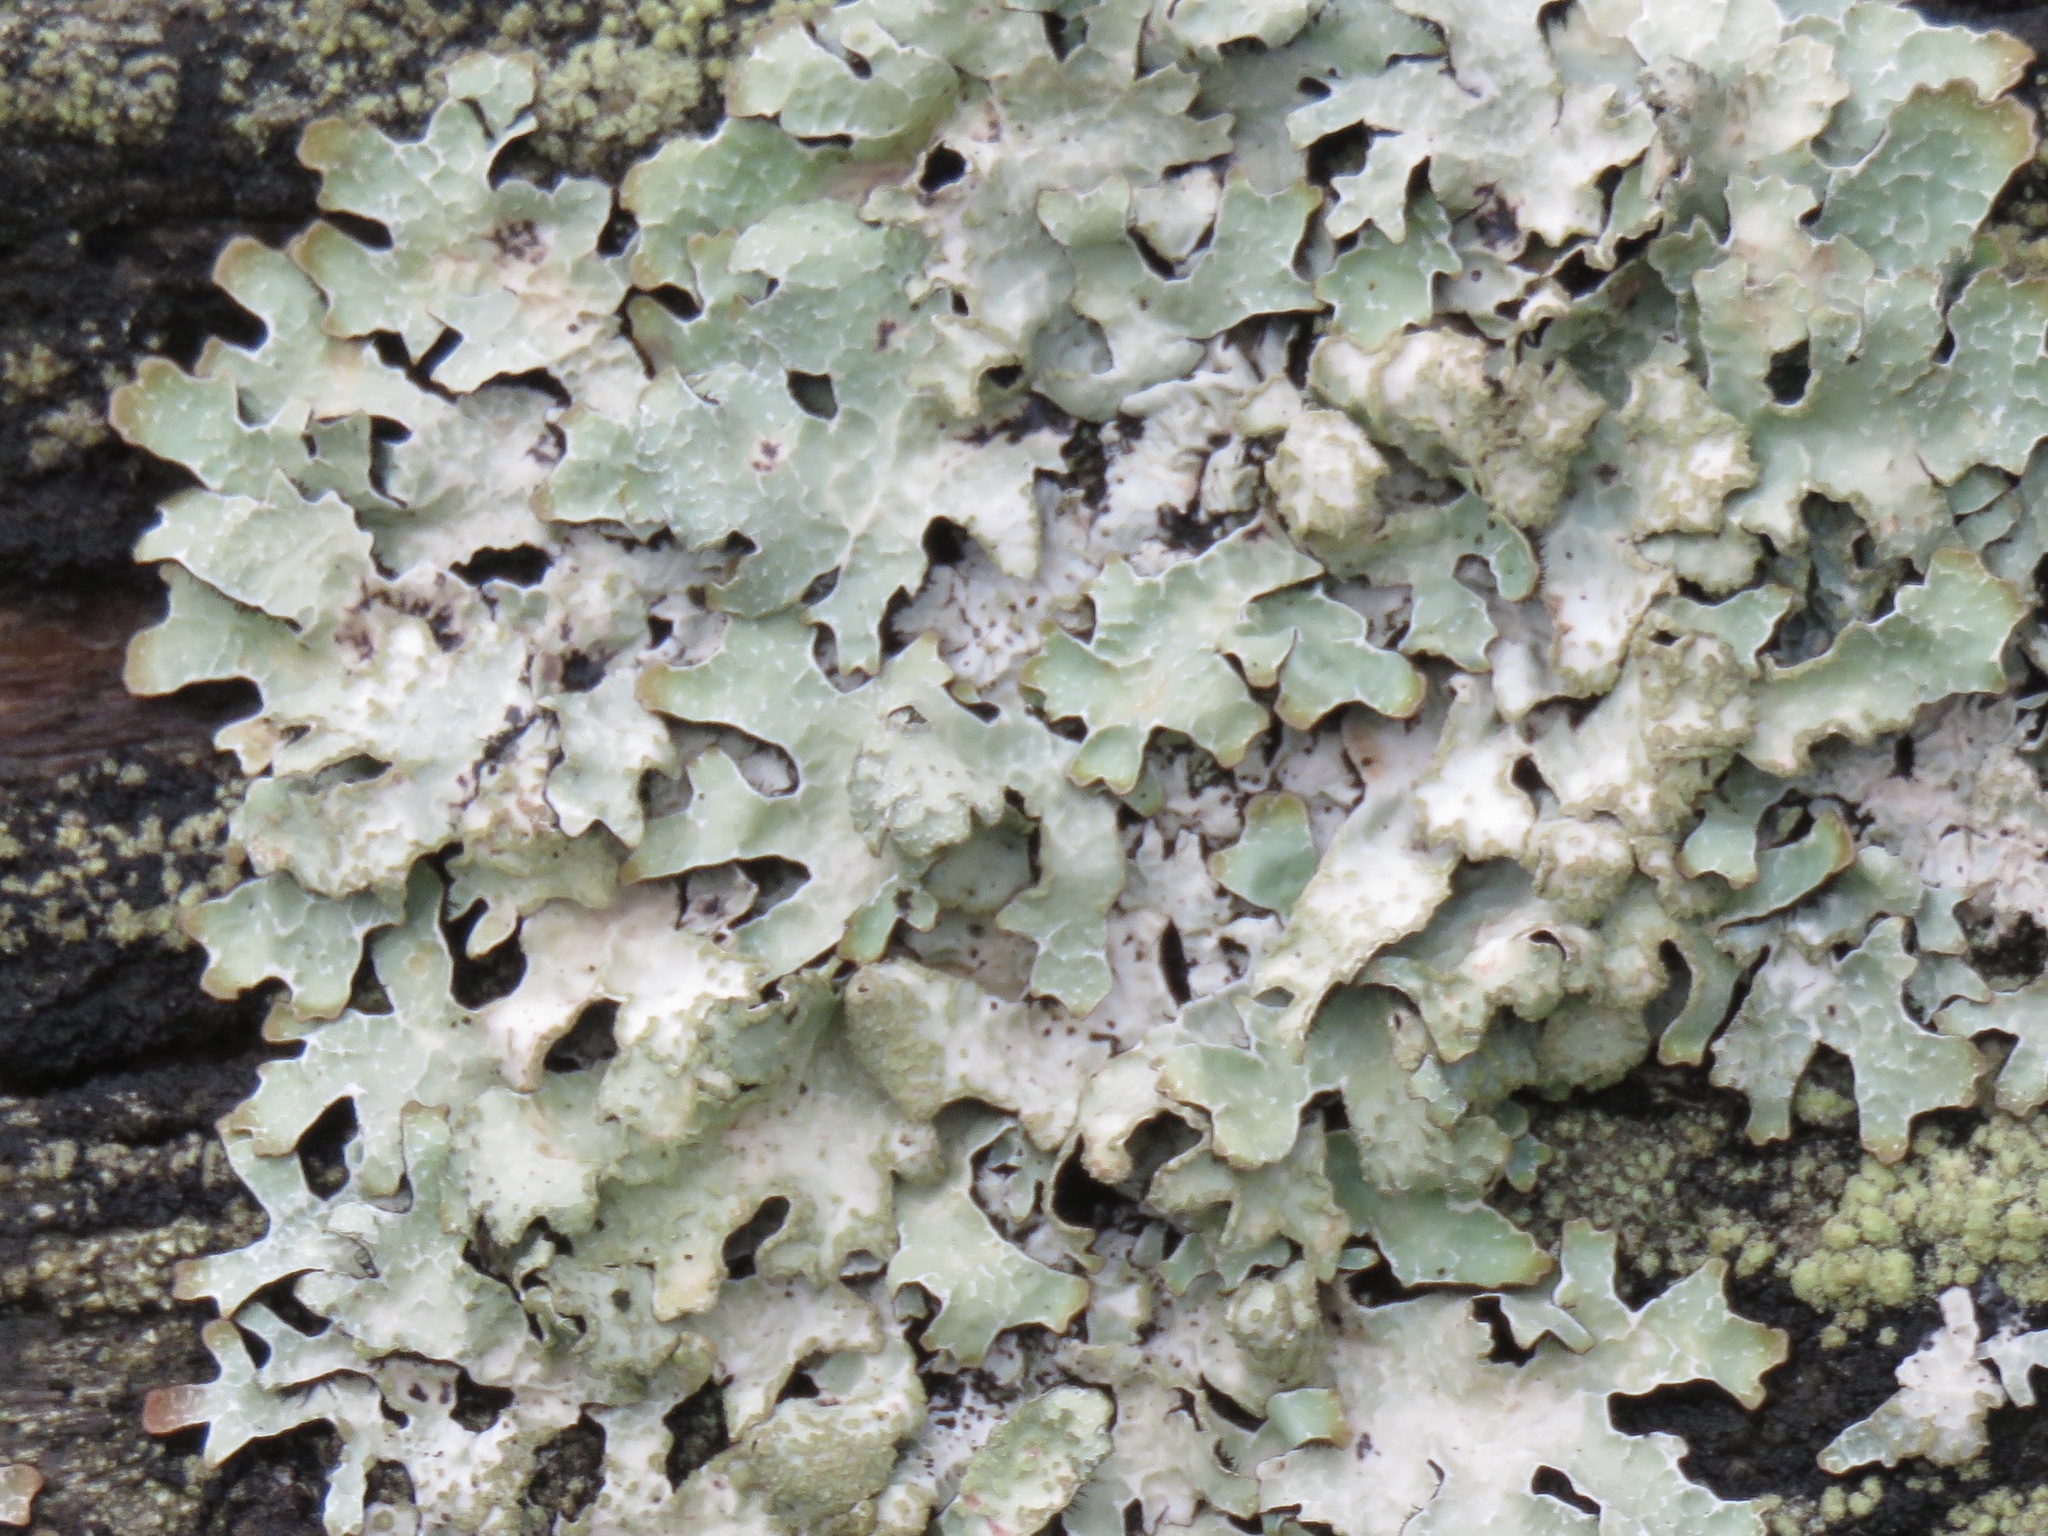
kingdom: Fungi
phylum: Ascomycota
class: Lecanoromycetes
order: Lecanorales
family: Parmeliaceae
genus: Parmelia
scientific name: Parmelia sulcata
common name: Netted shield lichen
